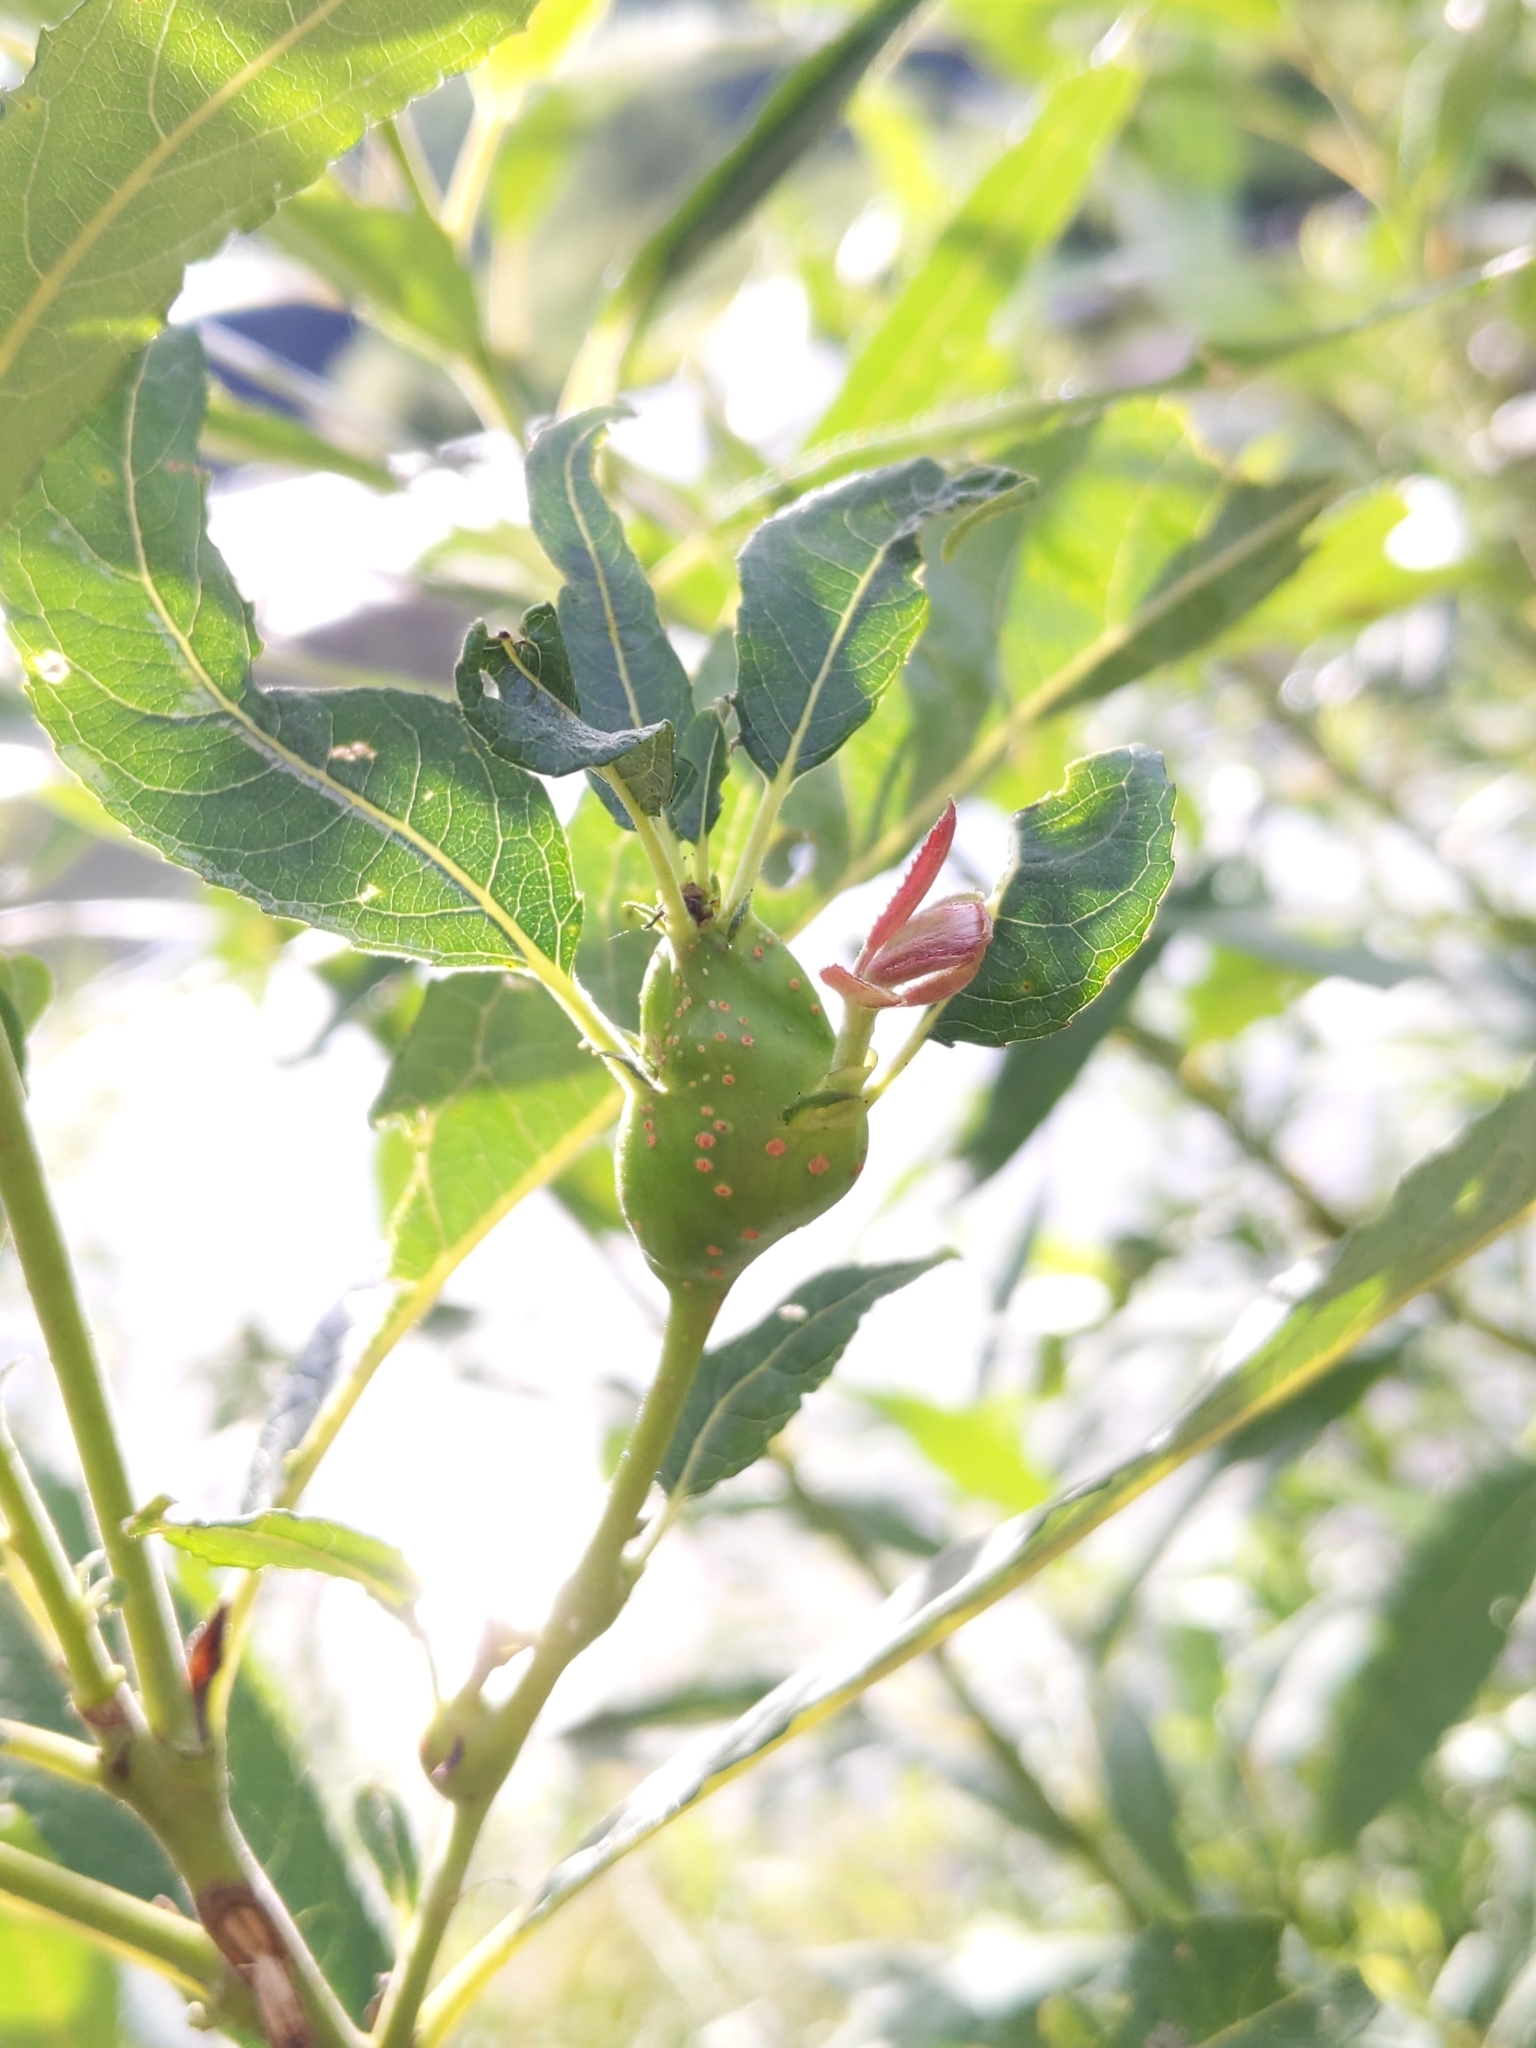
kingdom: Animalia
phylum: Arthropoda
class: Insecta
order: Diptera
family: Cecidomyiidae
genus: Rabdophaga
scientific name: Rabdophaga salicisbatatas
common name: Potato gall midge
